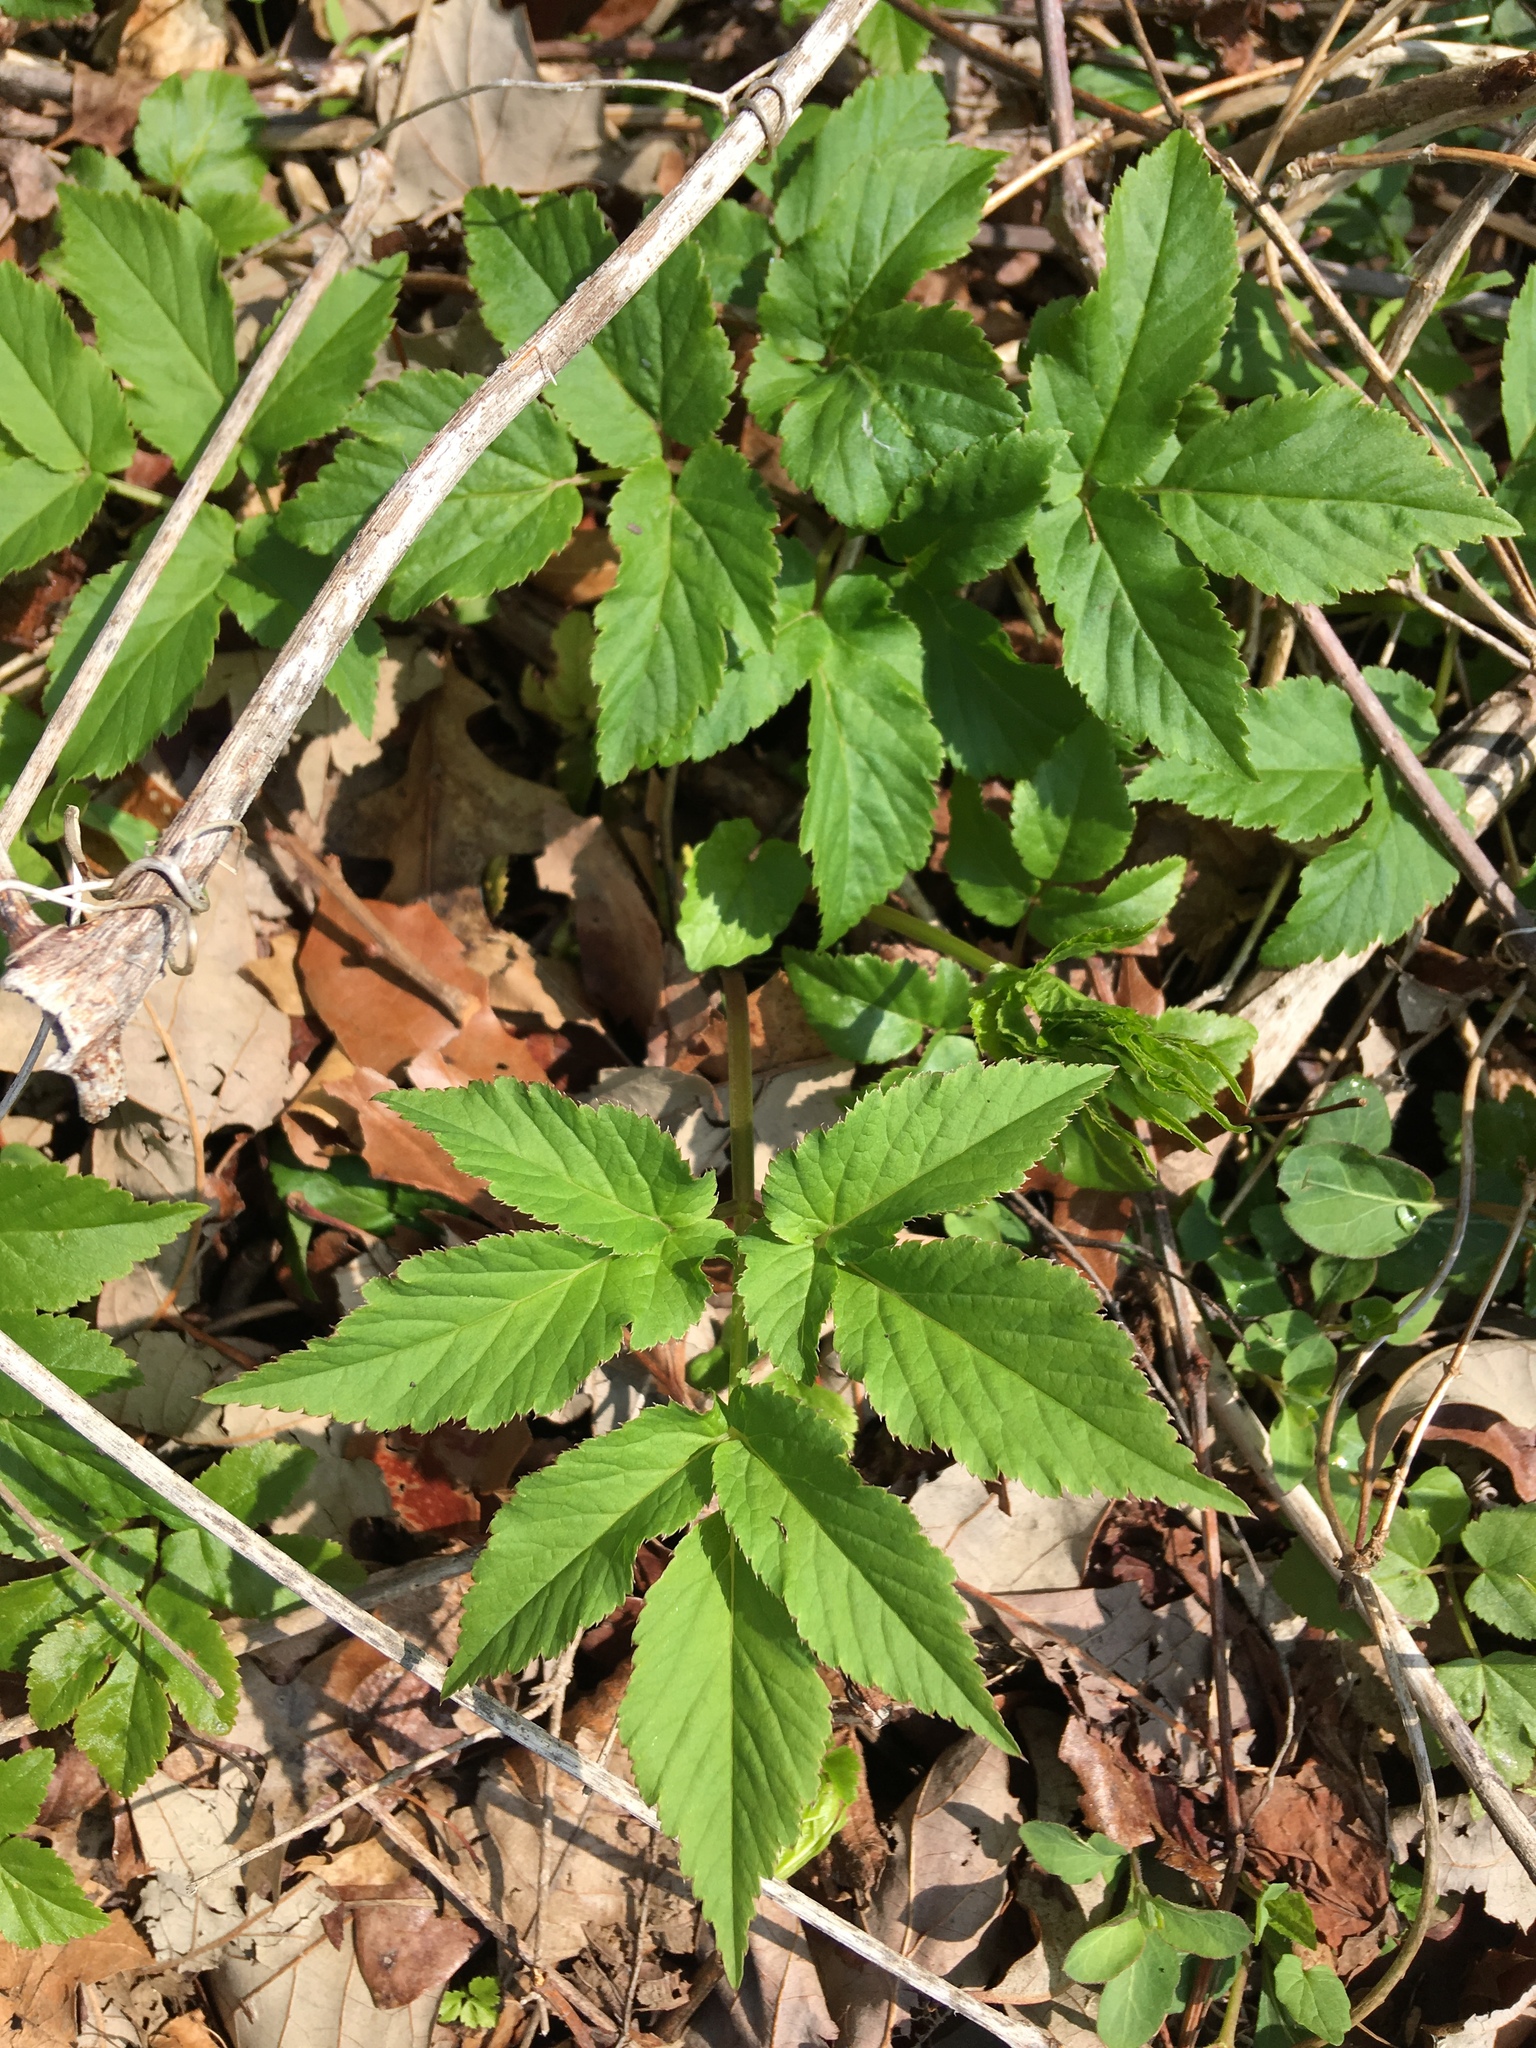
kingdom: Plantae
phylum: Tracheophyta
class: Magnoliopsida
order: Apiales
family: Apiaceae
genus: Aegopodium
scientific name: Aegopodium podagraria
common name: Ground-elder
